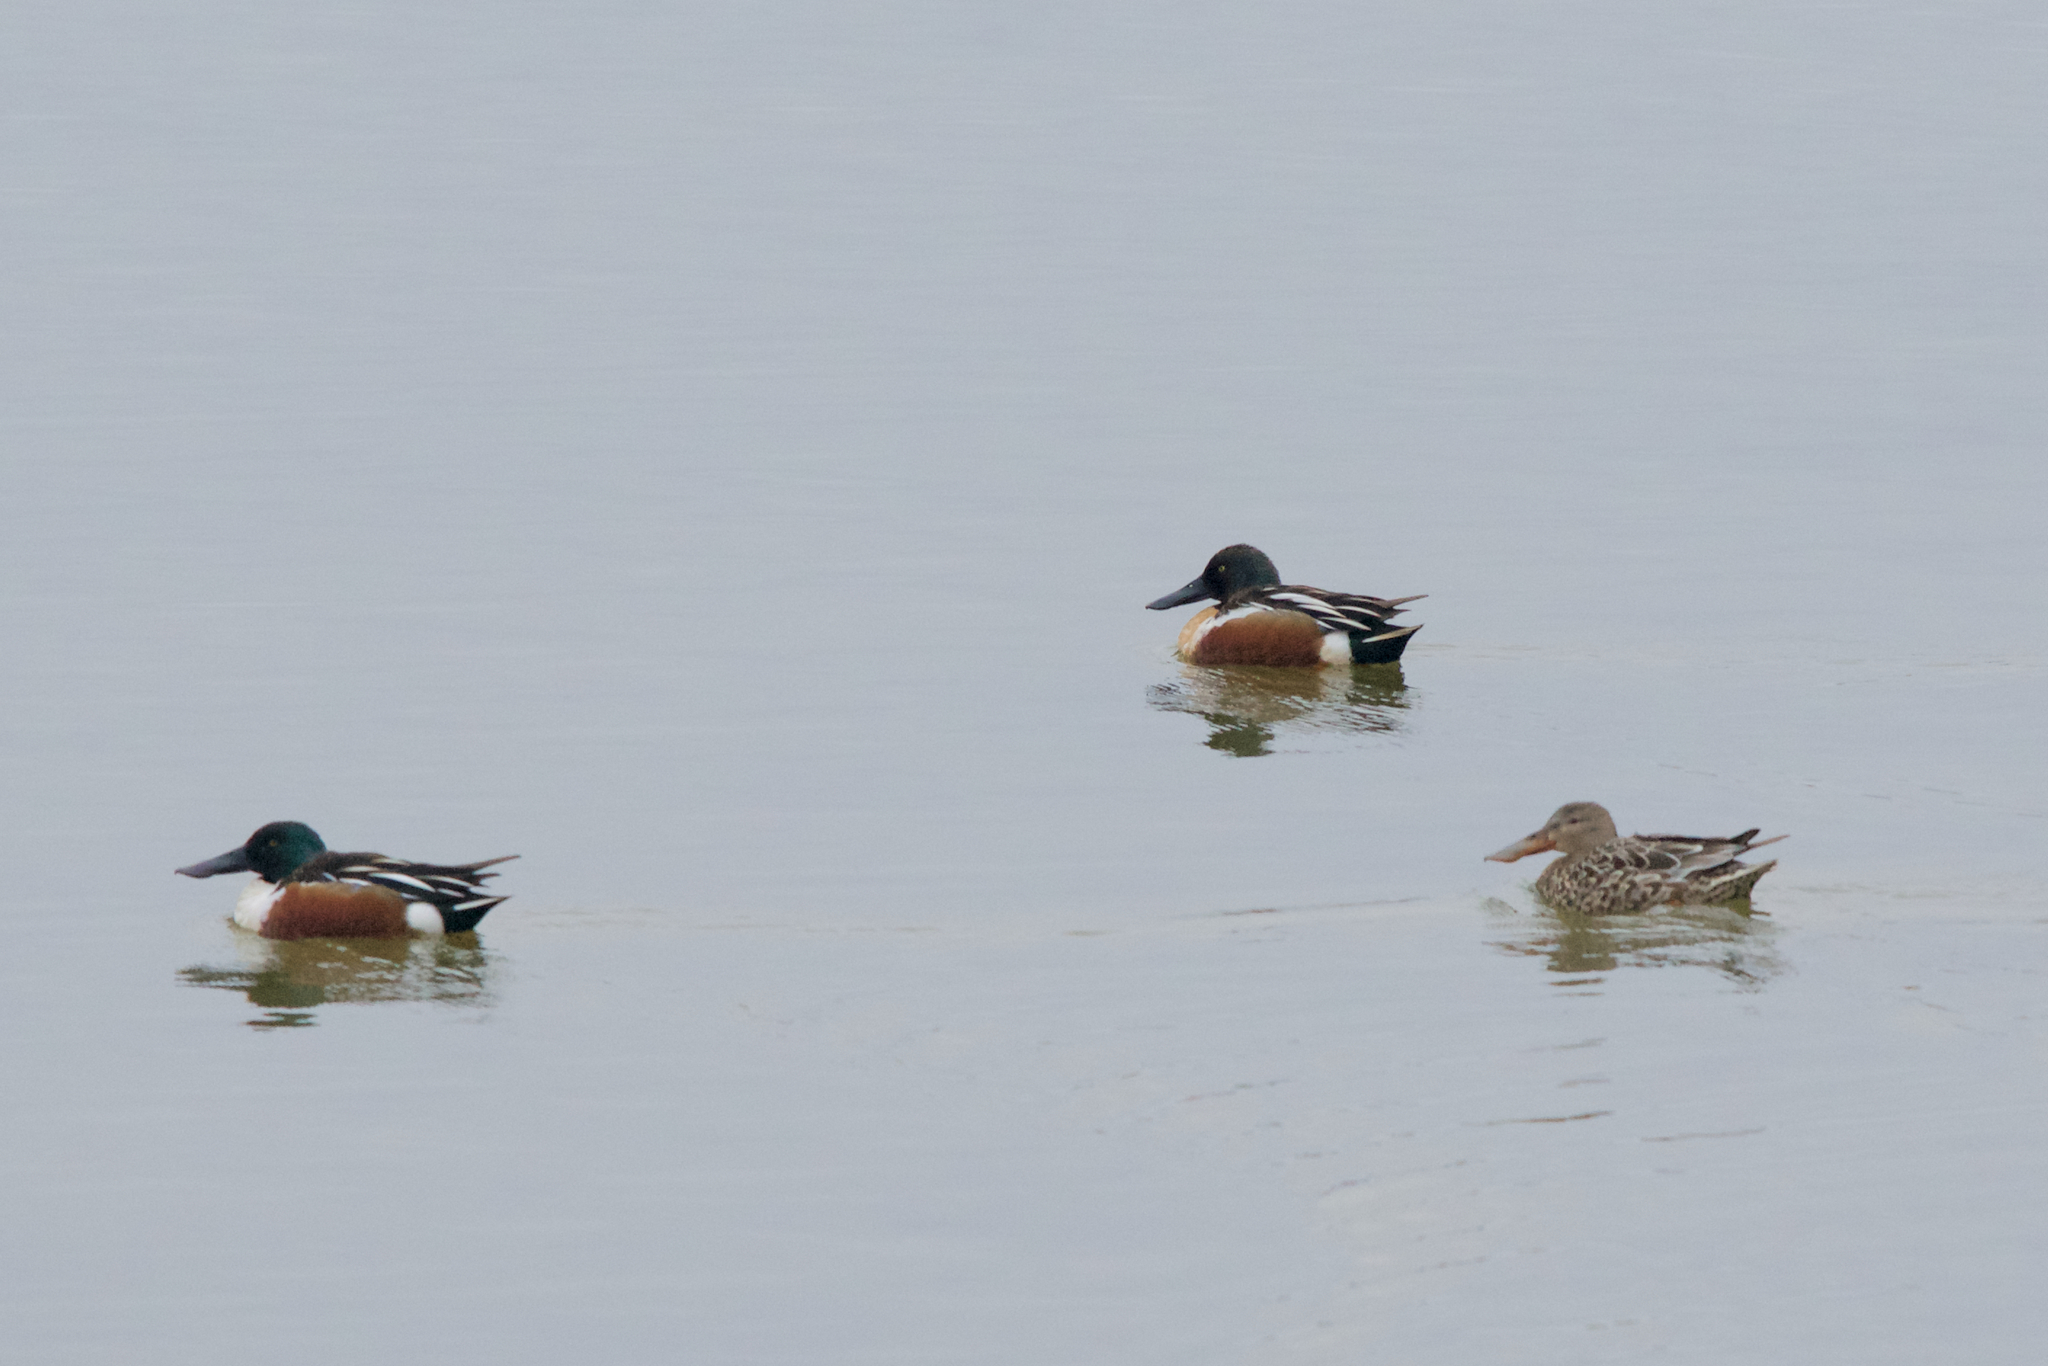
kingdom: Animalia
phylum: Chordata
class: Aves
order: Anseriformes
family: Anatidae
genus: Spatula
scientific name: Spatula clypeata
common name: Northern shoveler
